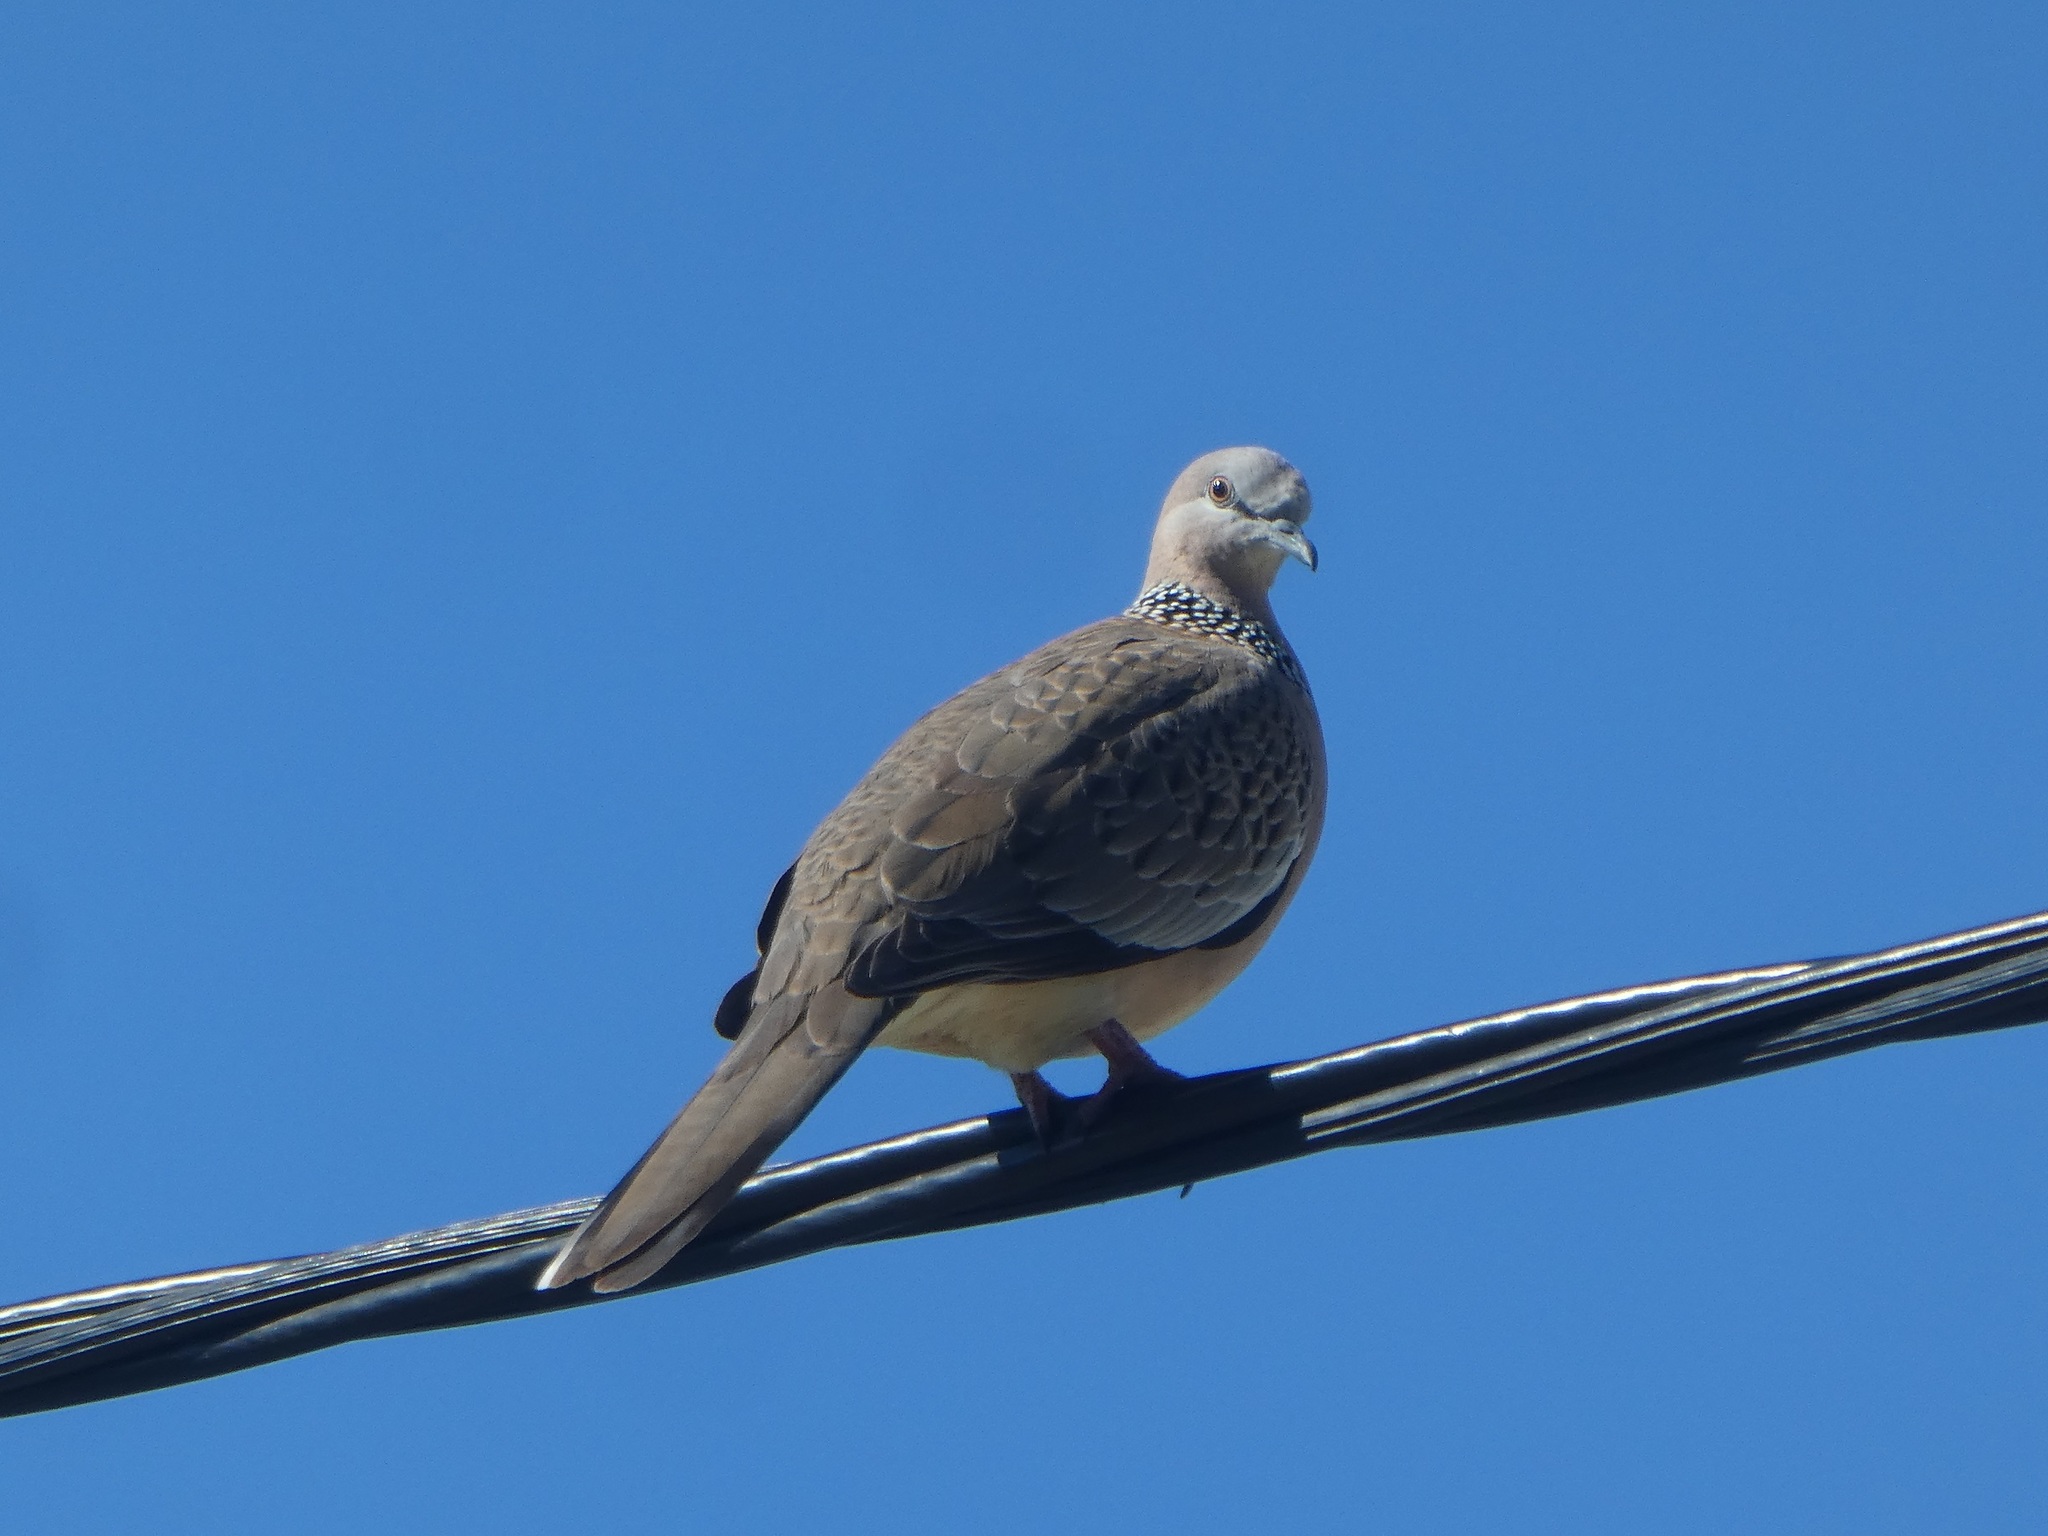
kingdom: Animalia
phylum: Chordata
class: Aves
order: Columbiformes
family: Columbidae
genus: Spilopelia
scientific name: Spilopelia chinensis
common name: Spotted dove
